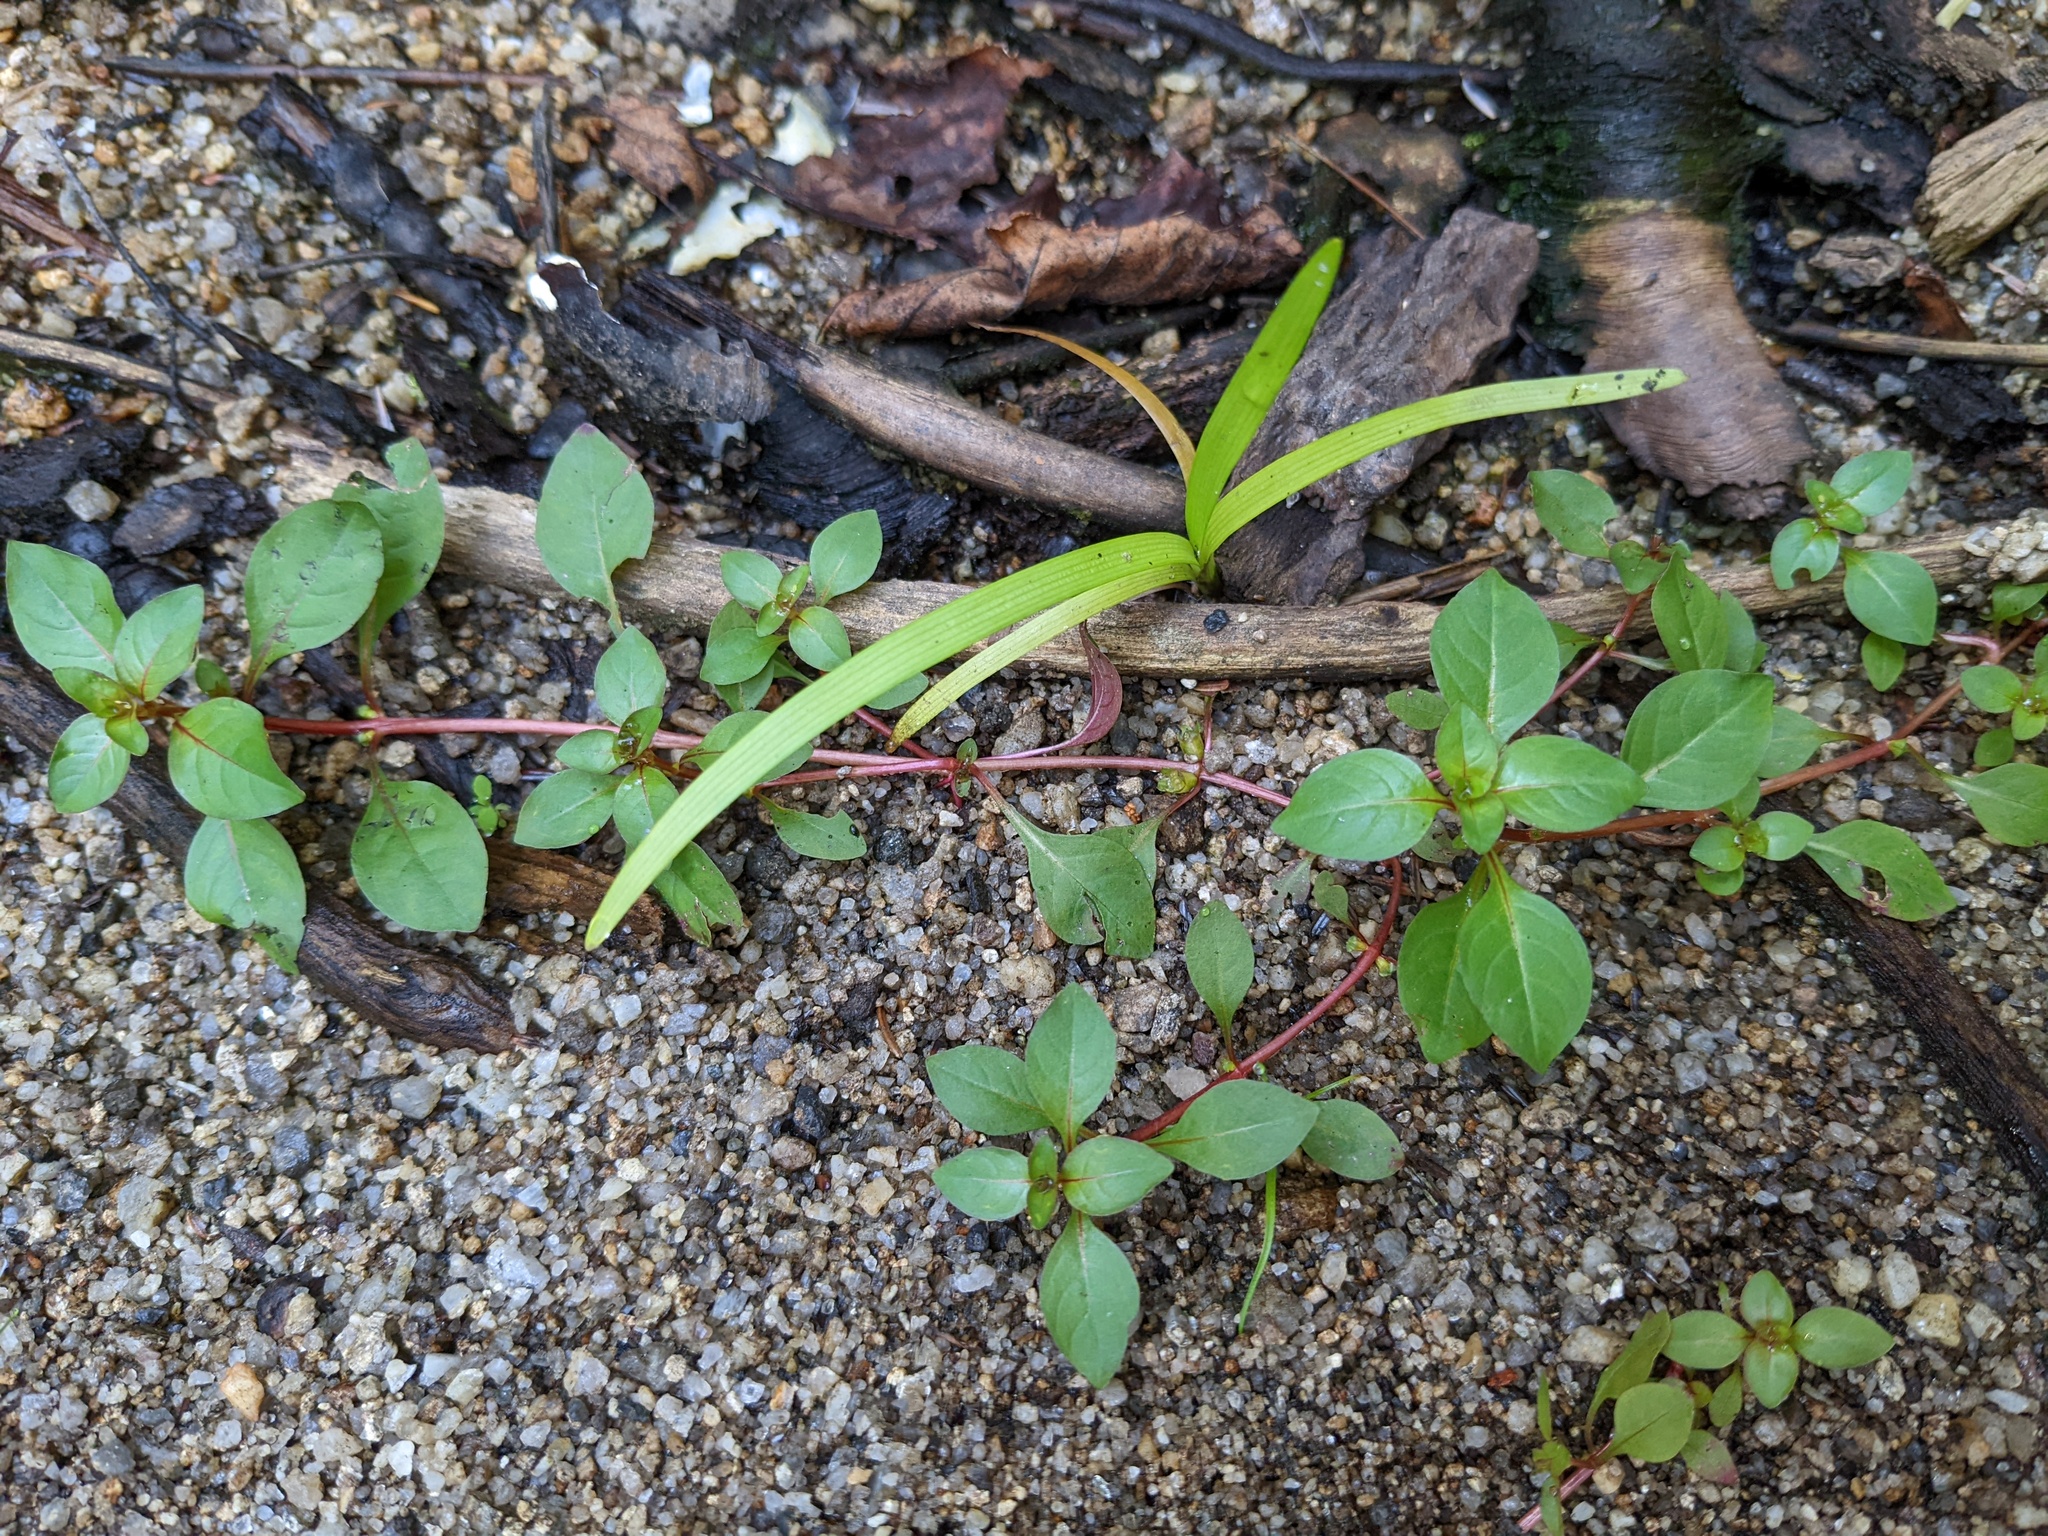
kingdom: Plantae
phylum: Tracheophyta
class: Magnoliopsida
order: Myrtales
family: Onagraceae
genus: Ludwigia
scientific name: Ludwigia palustris
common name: Hampshire-purslane
